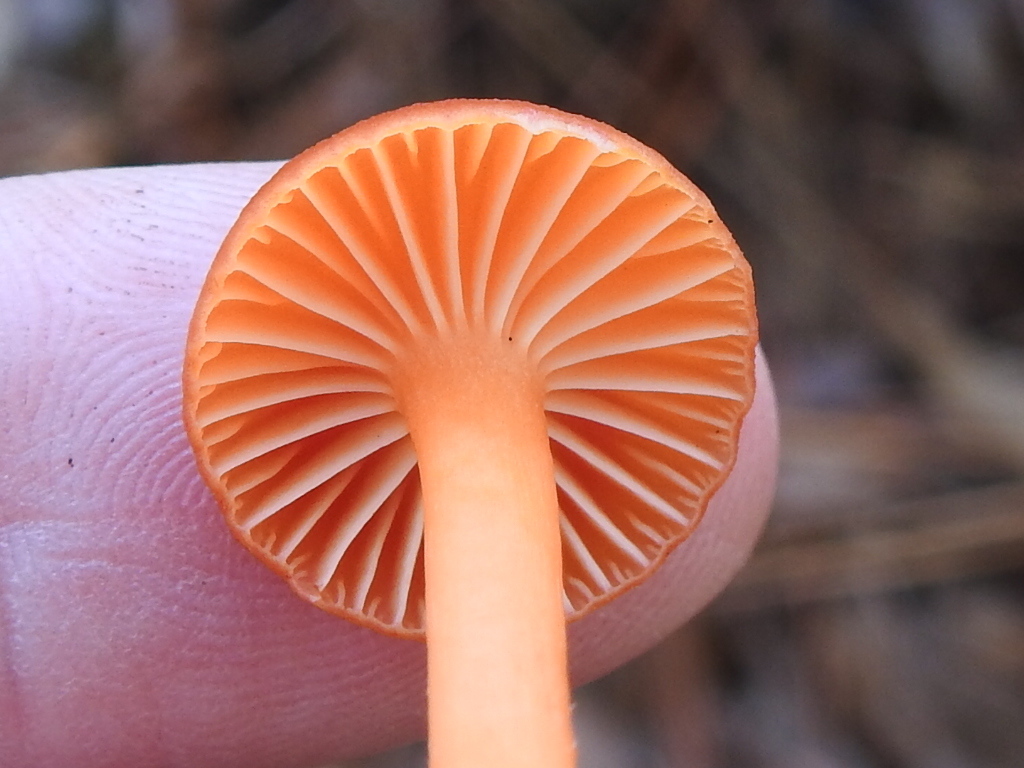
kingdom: Fungi
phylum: Basidiomycota
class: Agaricomycetes
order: Agaricales
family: Hygrophoraceae
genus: Hygrocybe
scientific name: Hygrocybe miniata
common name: Vermilion waxcap
